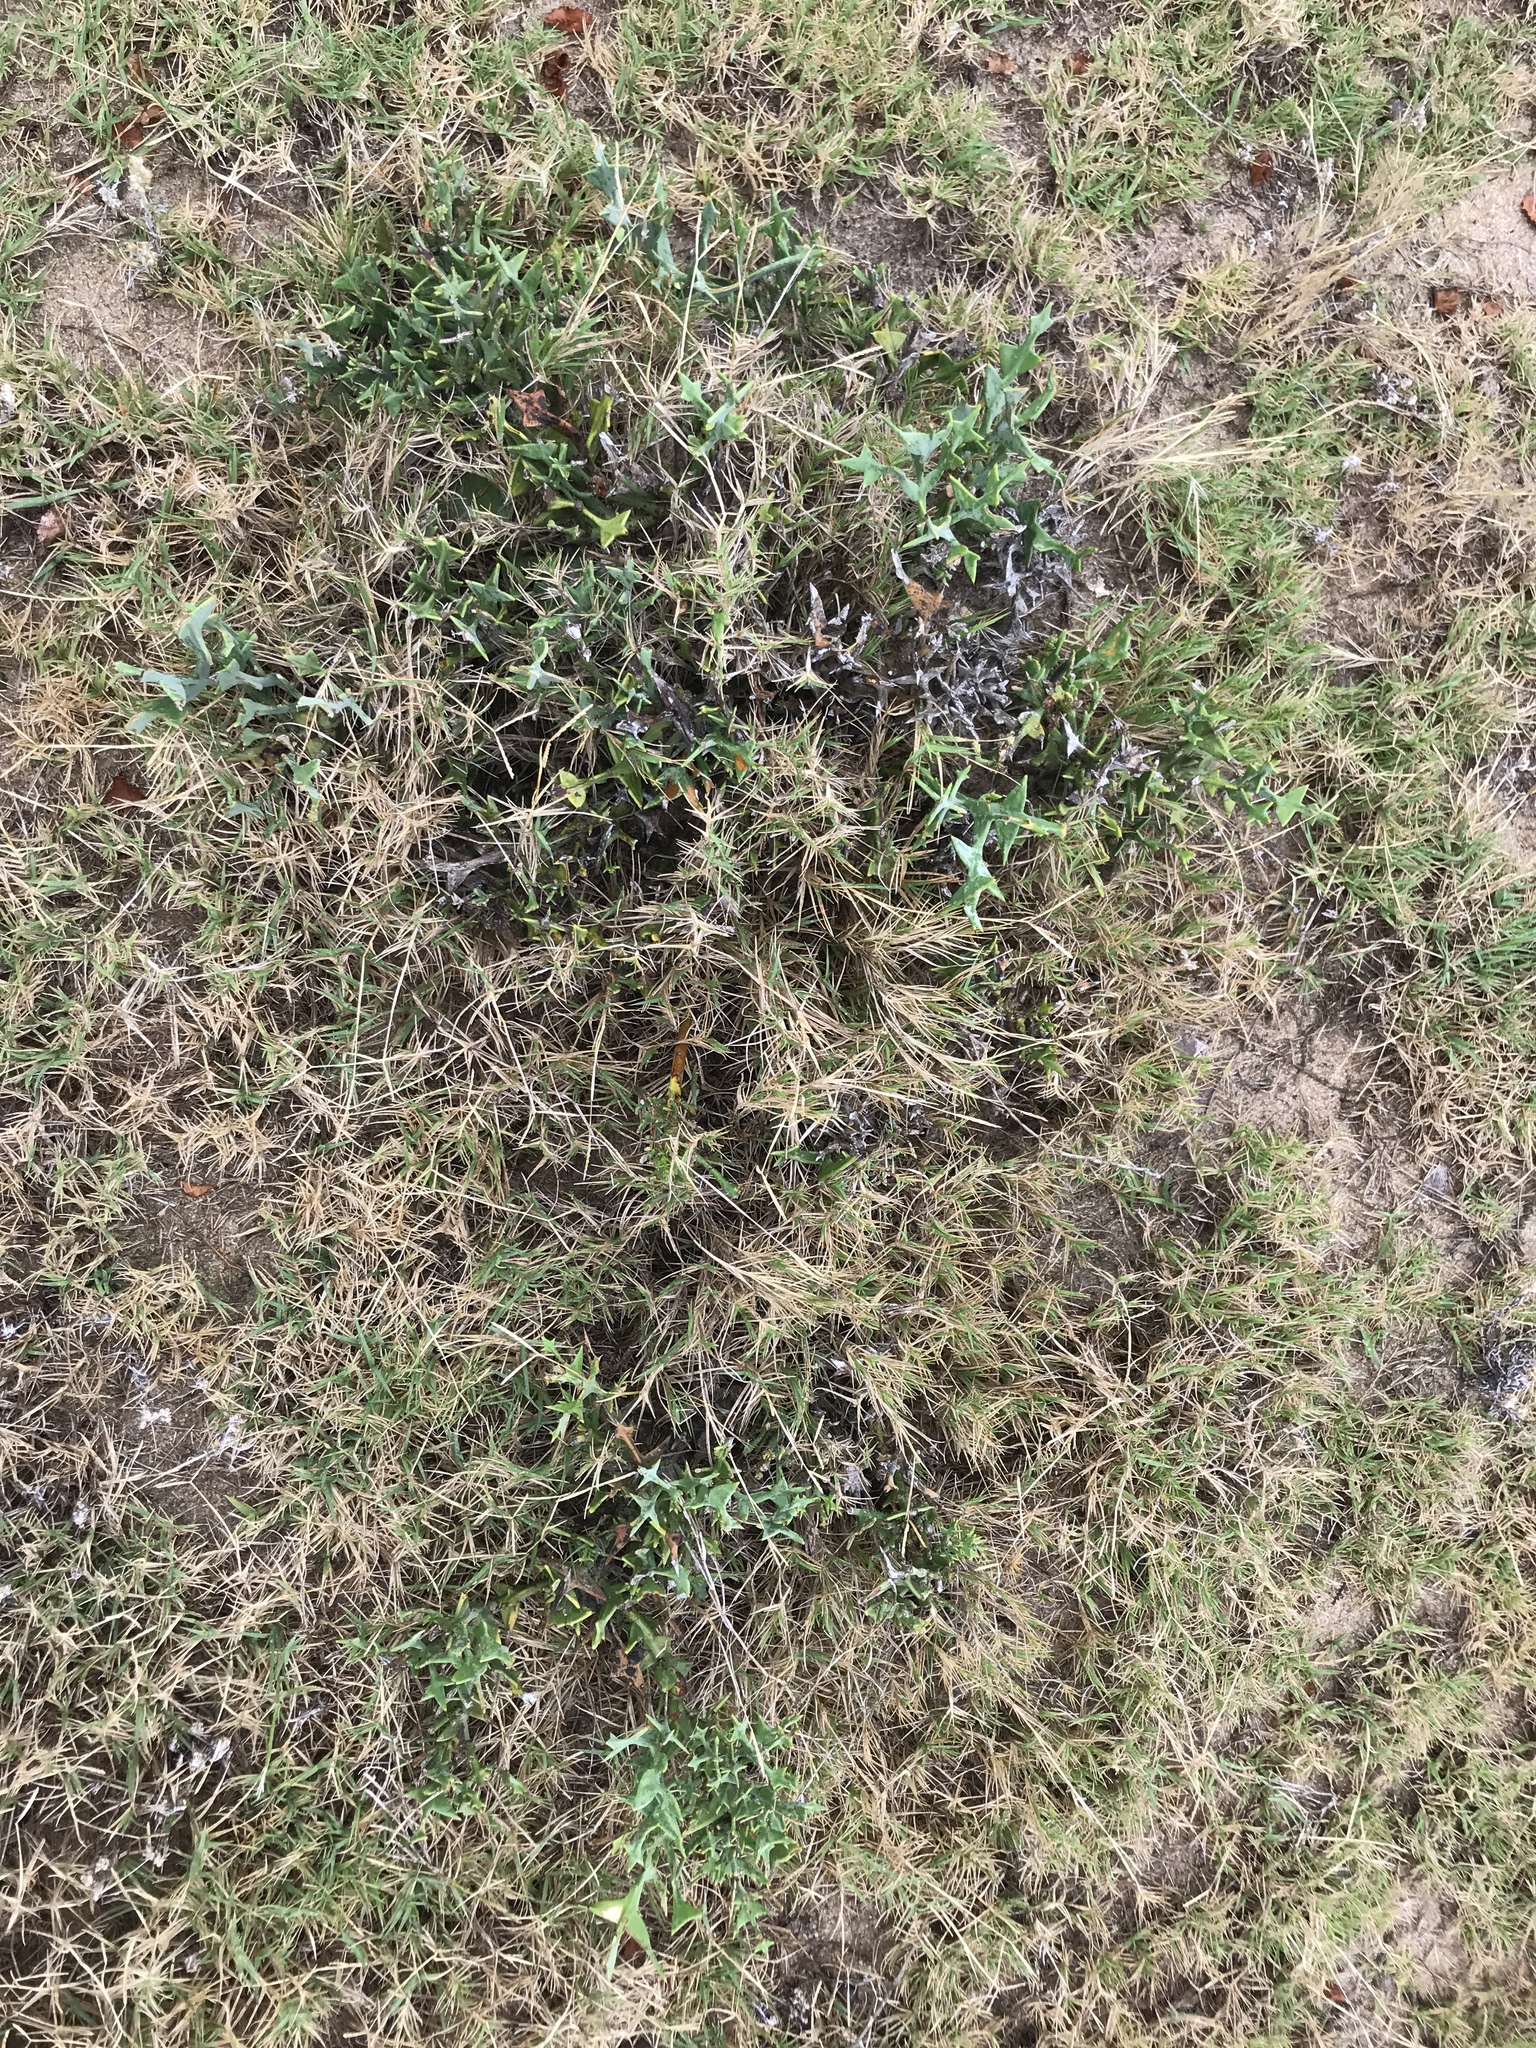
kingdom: Plantae
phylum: Tracheophyta
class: Magnoliopsida
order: Rosales
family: Rhamnaceae
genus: Colletia
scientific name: Colletia paradoxa
